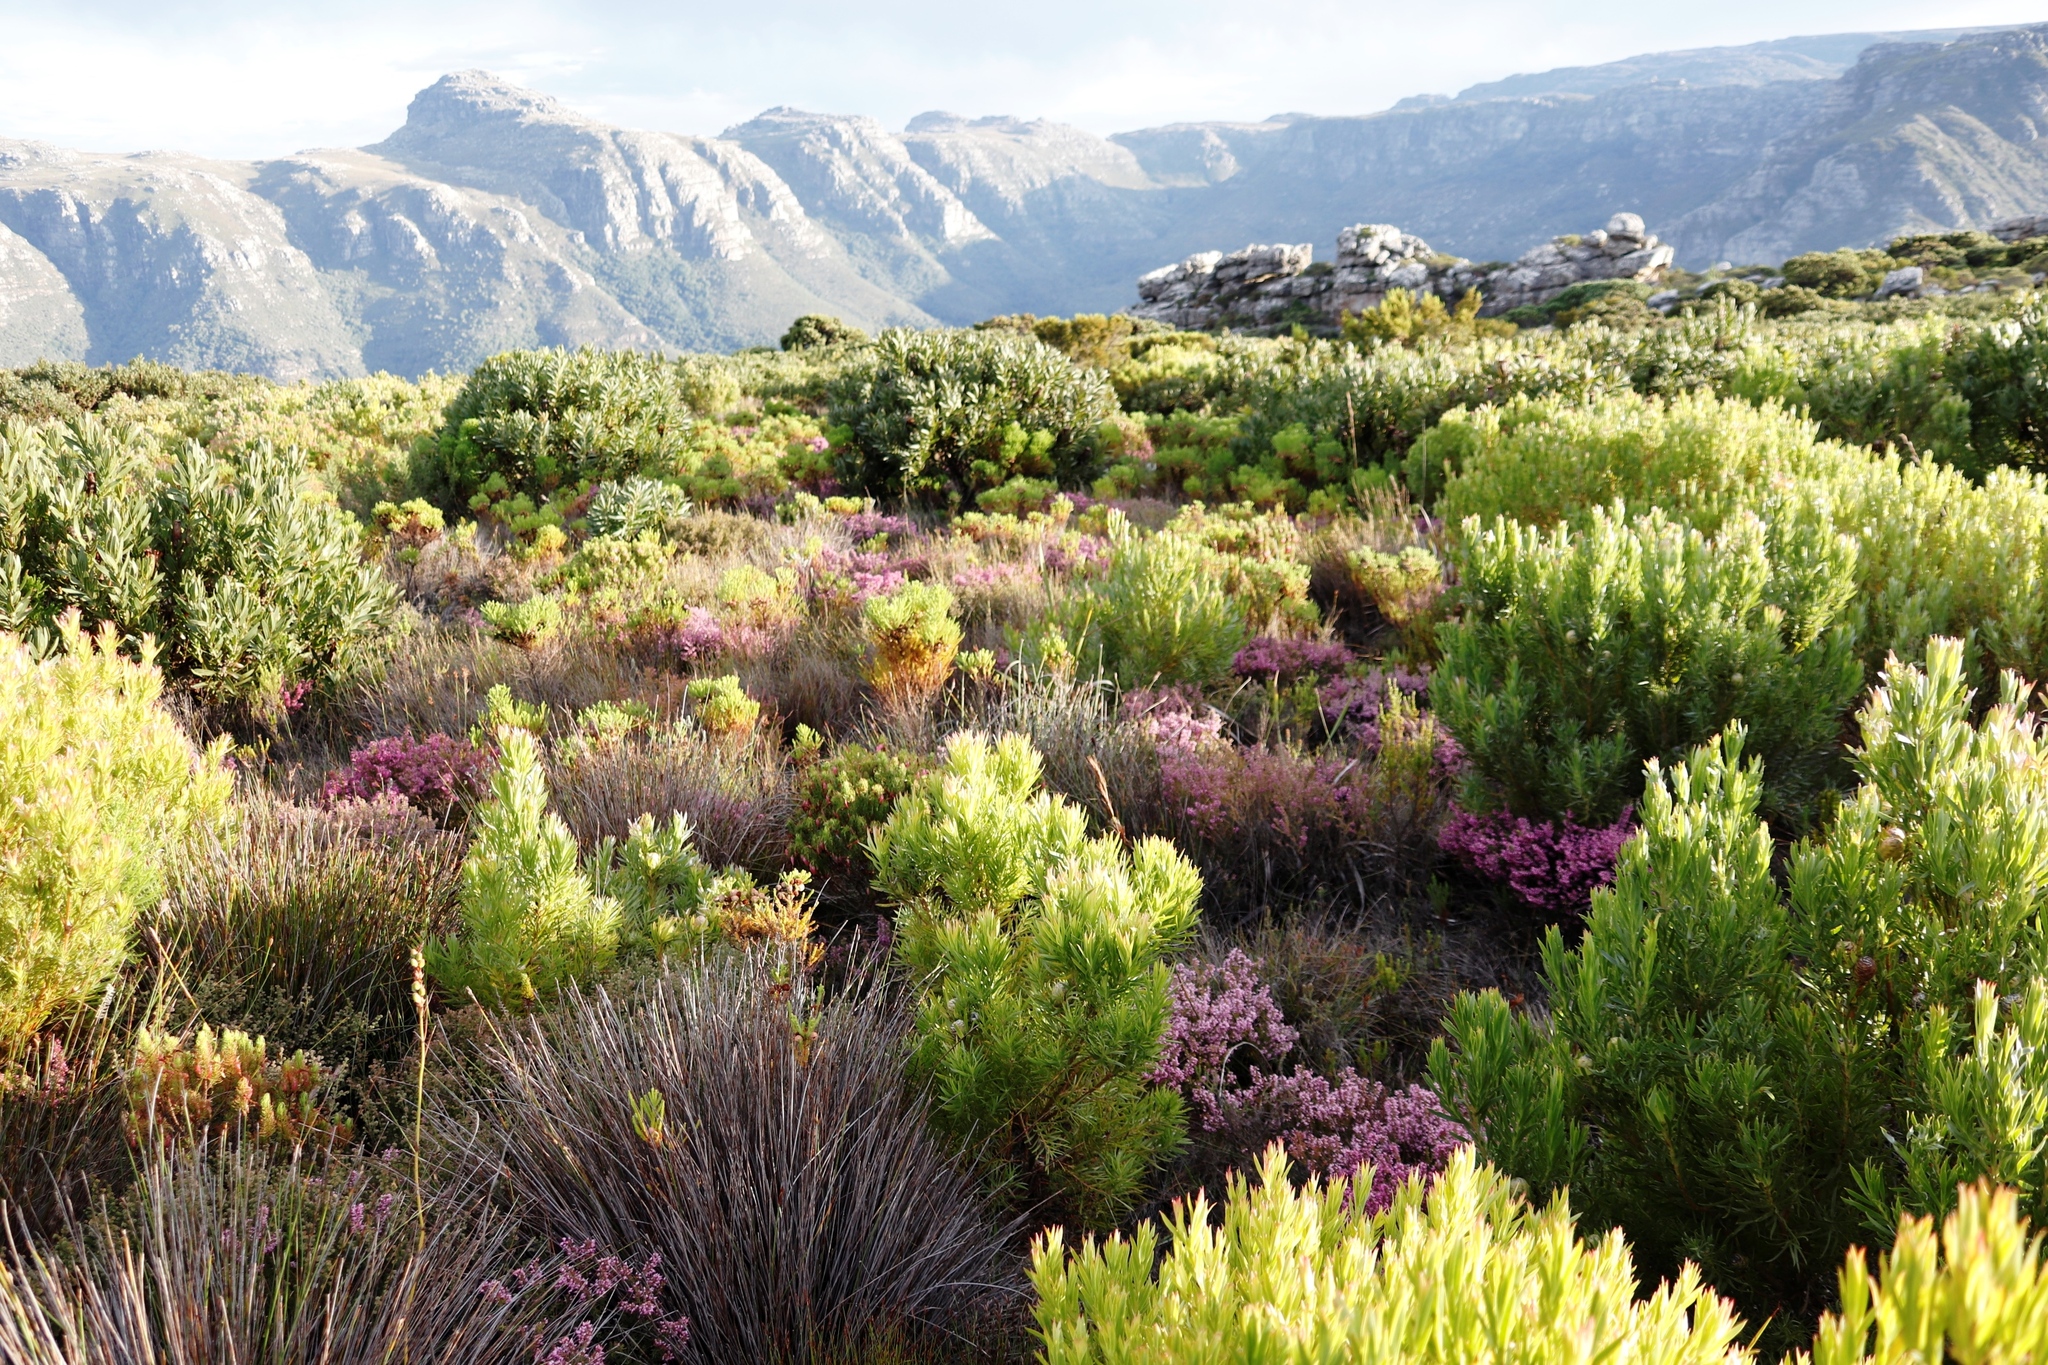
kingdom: Plantae
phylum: Tracheophyta
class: Magnoliopsida
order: Proteales
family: Proteaceae
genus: Leucadendron
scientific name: Leucadendron xanthoconus
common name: Sickle-leaf conebush
